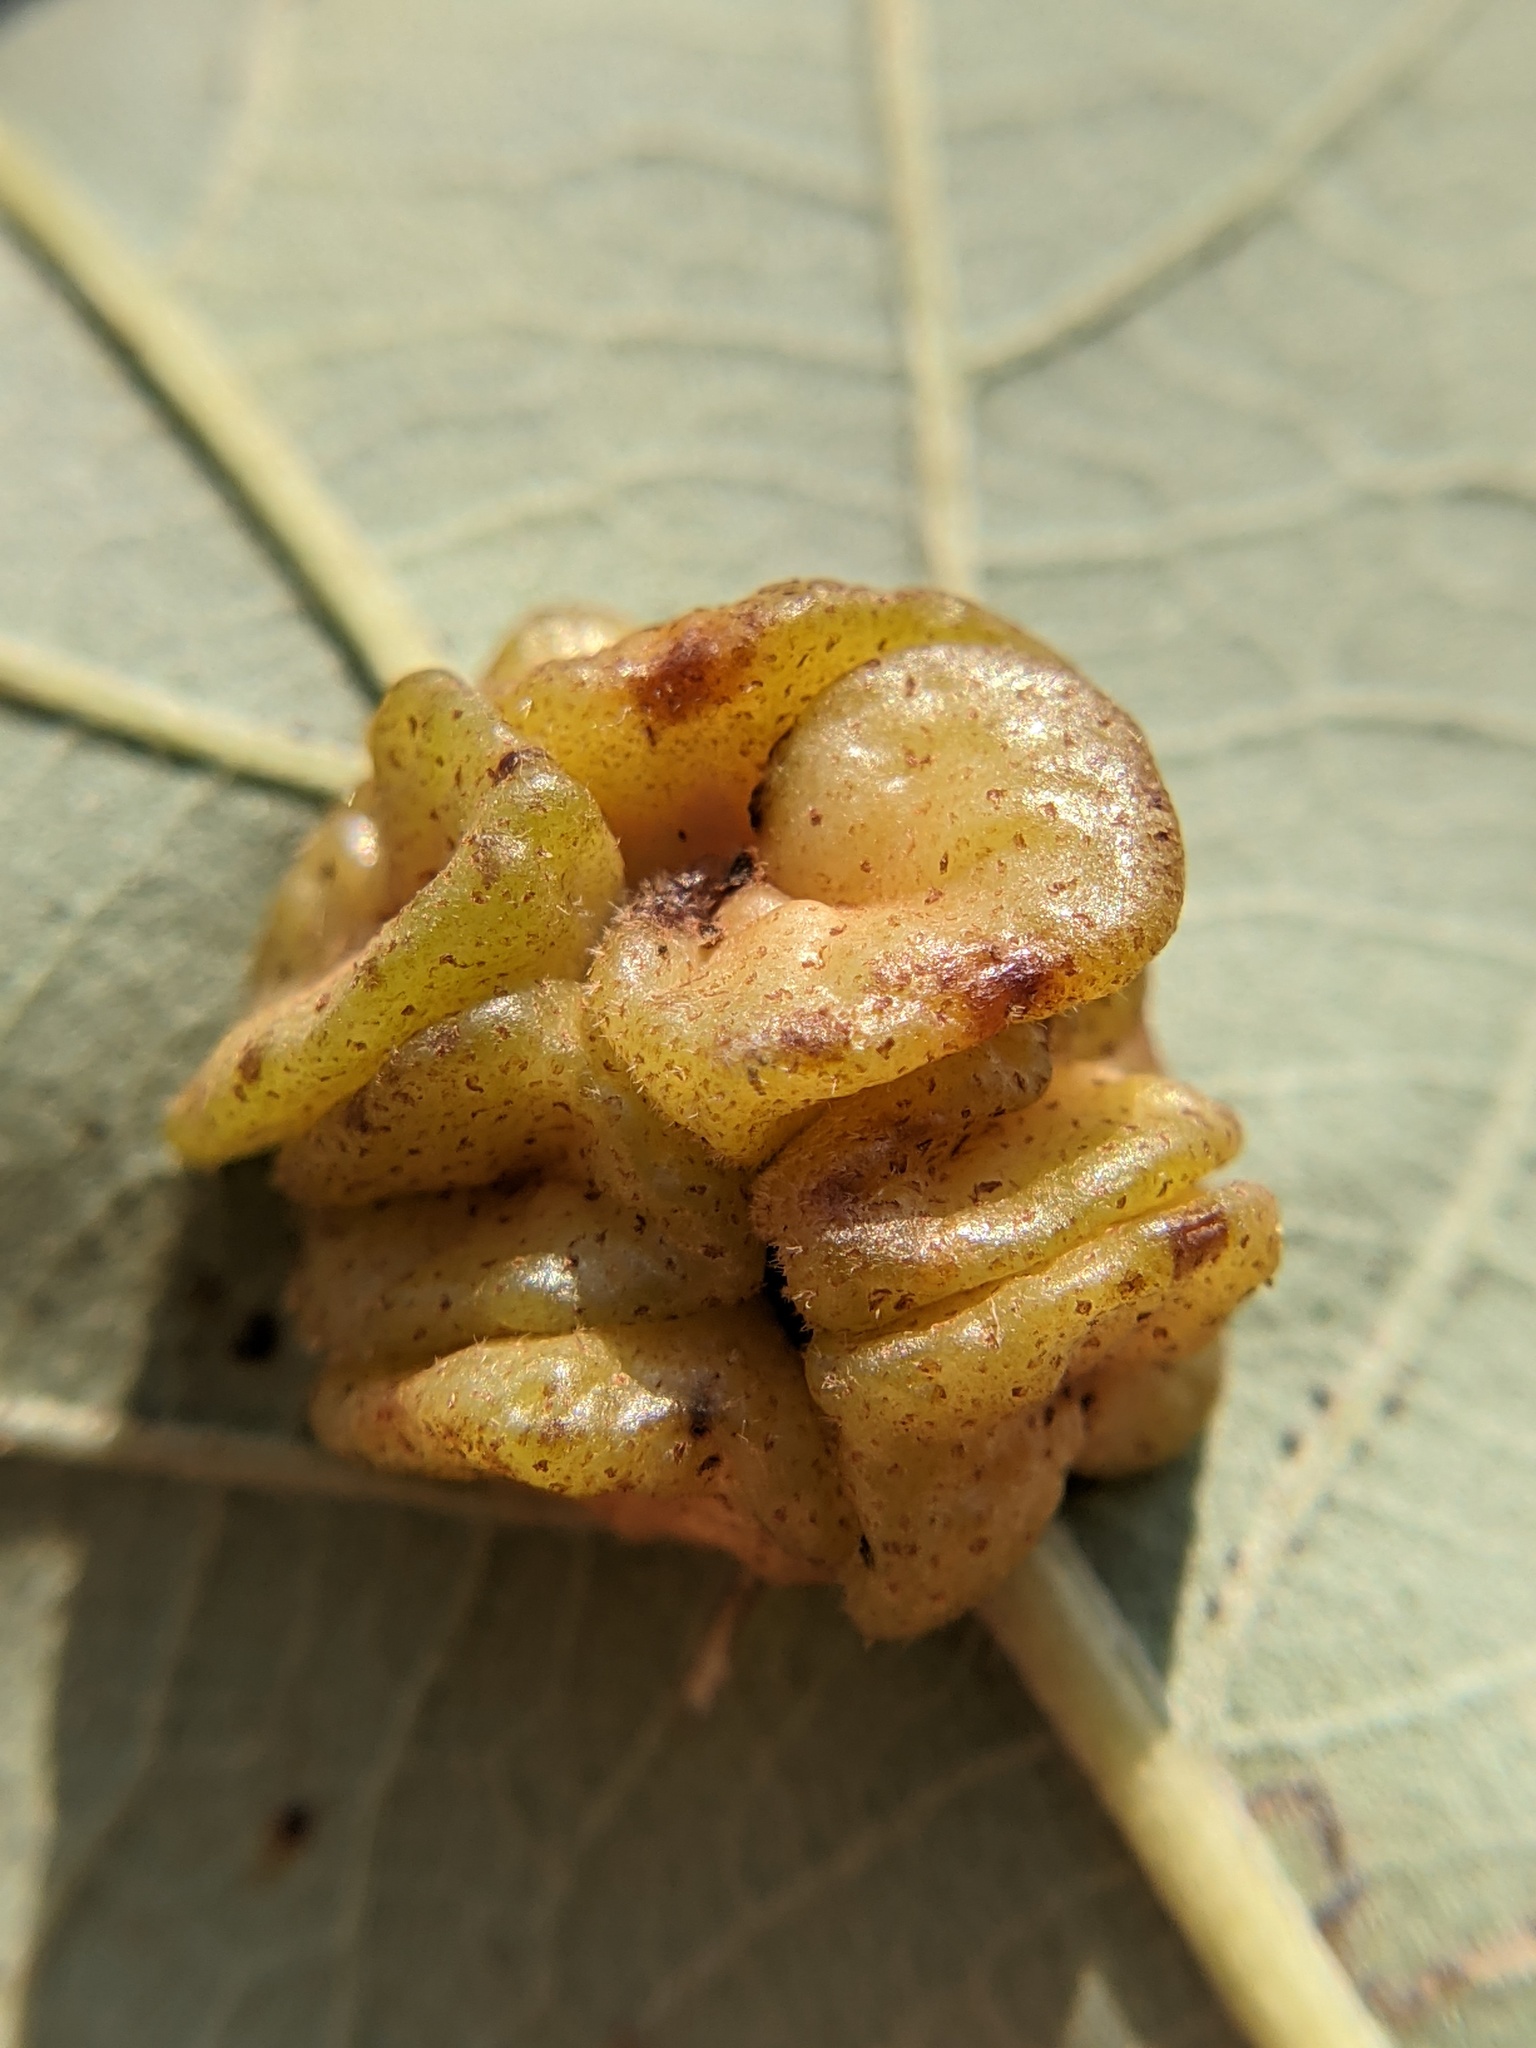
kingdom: Animalia
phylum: Arthropoda
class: Insecta
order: Hymenoptera
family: Cynipidae
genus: Andricus
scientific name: Andricus
